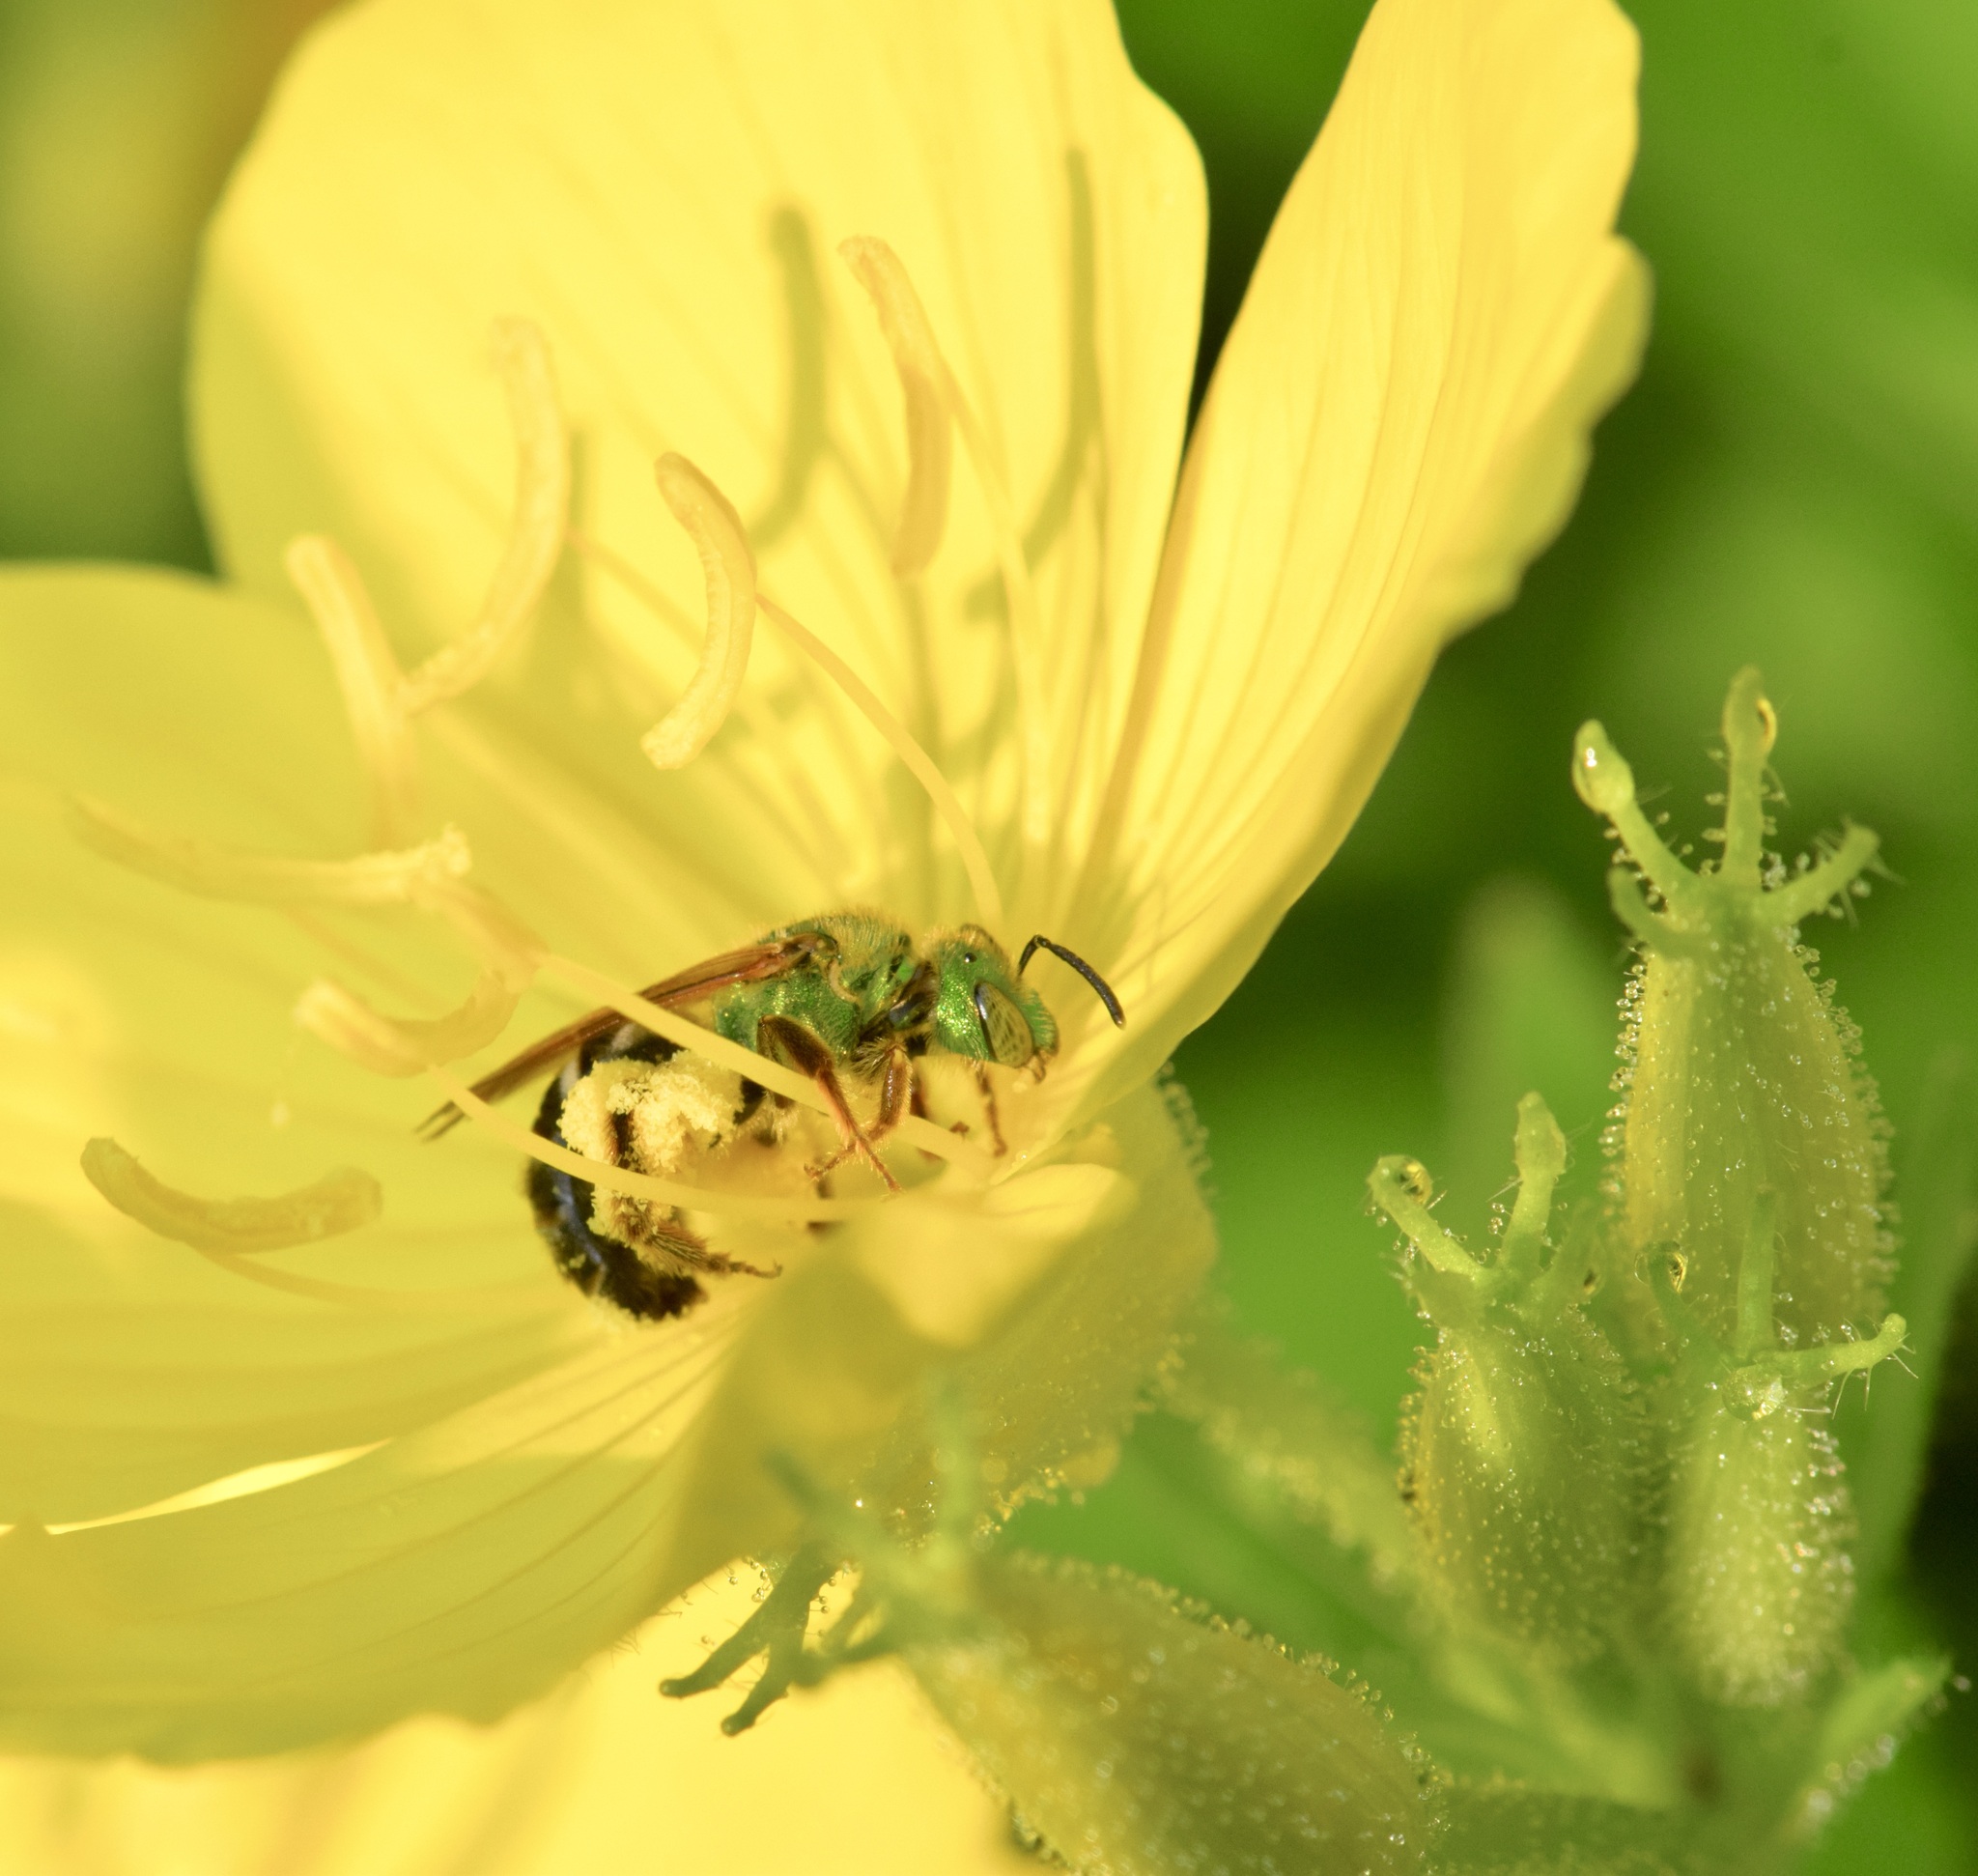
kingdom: Animalia
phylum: Arthropoda
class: Insecta
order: Hymenoptera
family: Halictidae
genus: Agapostemon
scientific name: Agapostemon virescens
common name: Bicolored striped sweat bee
